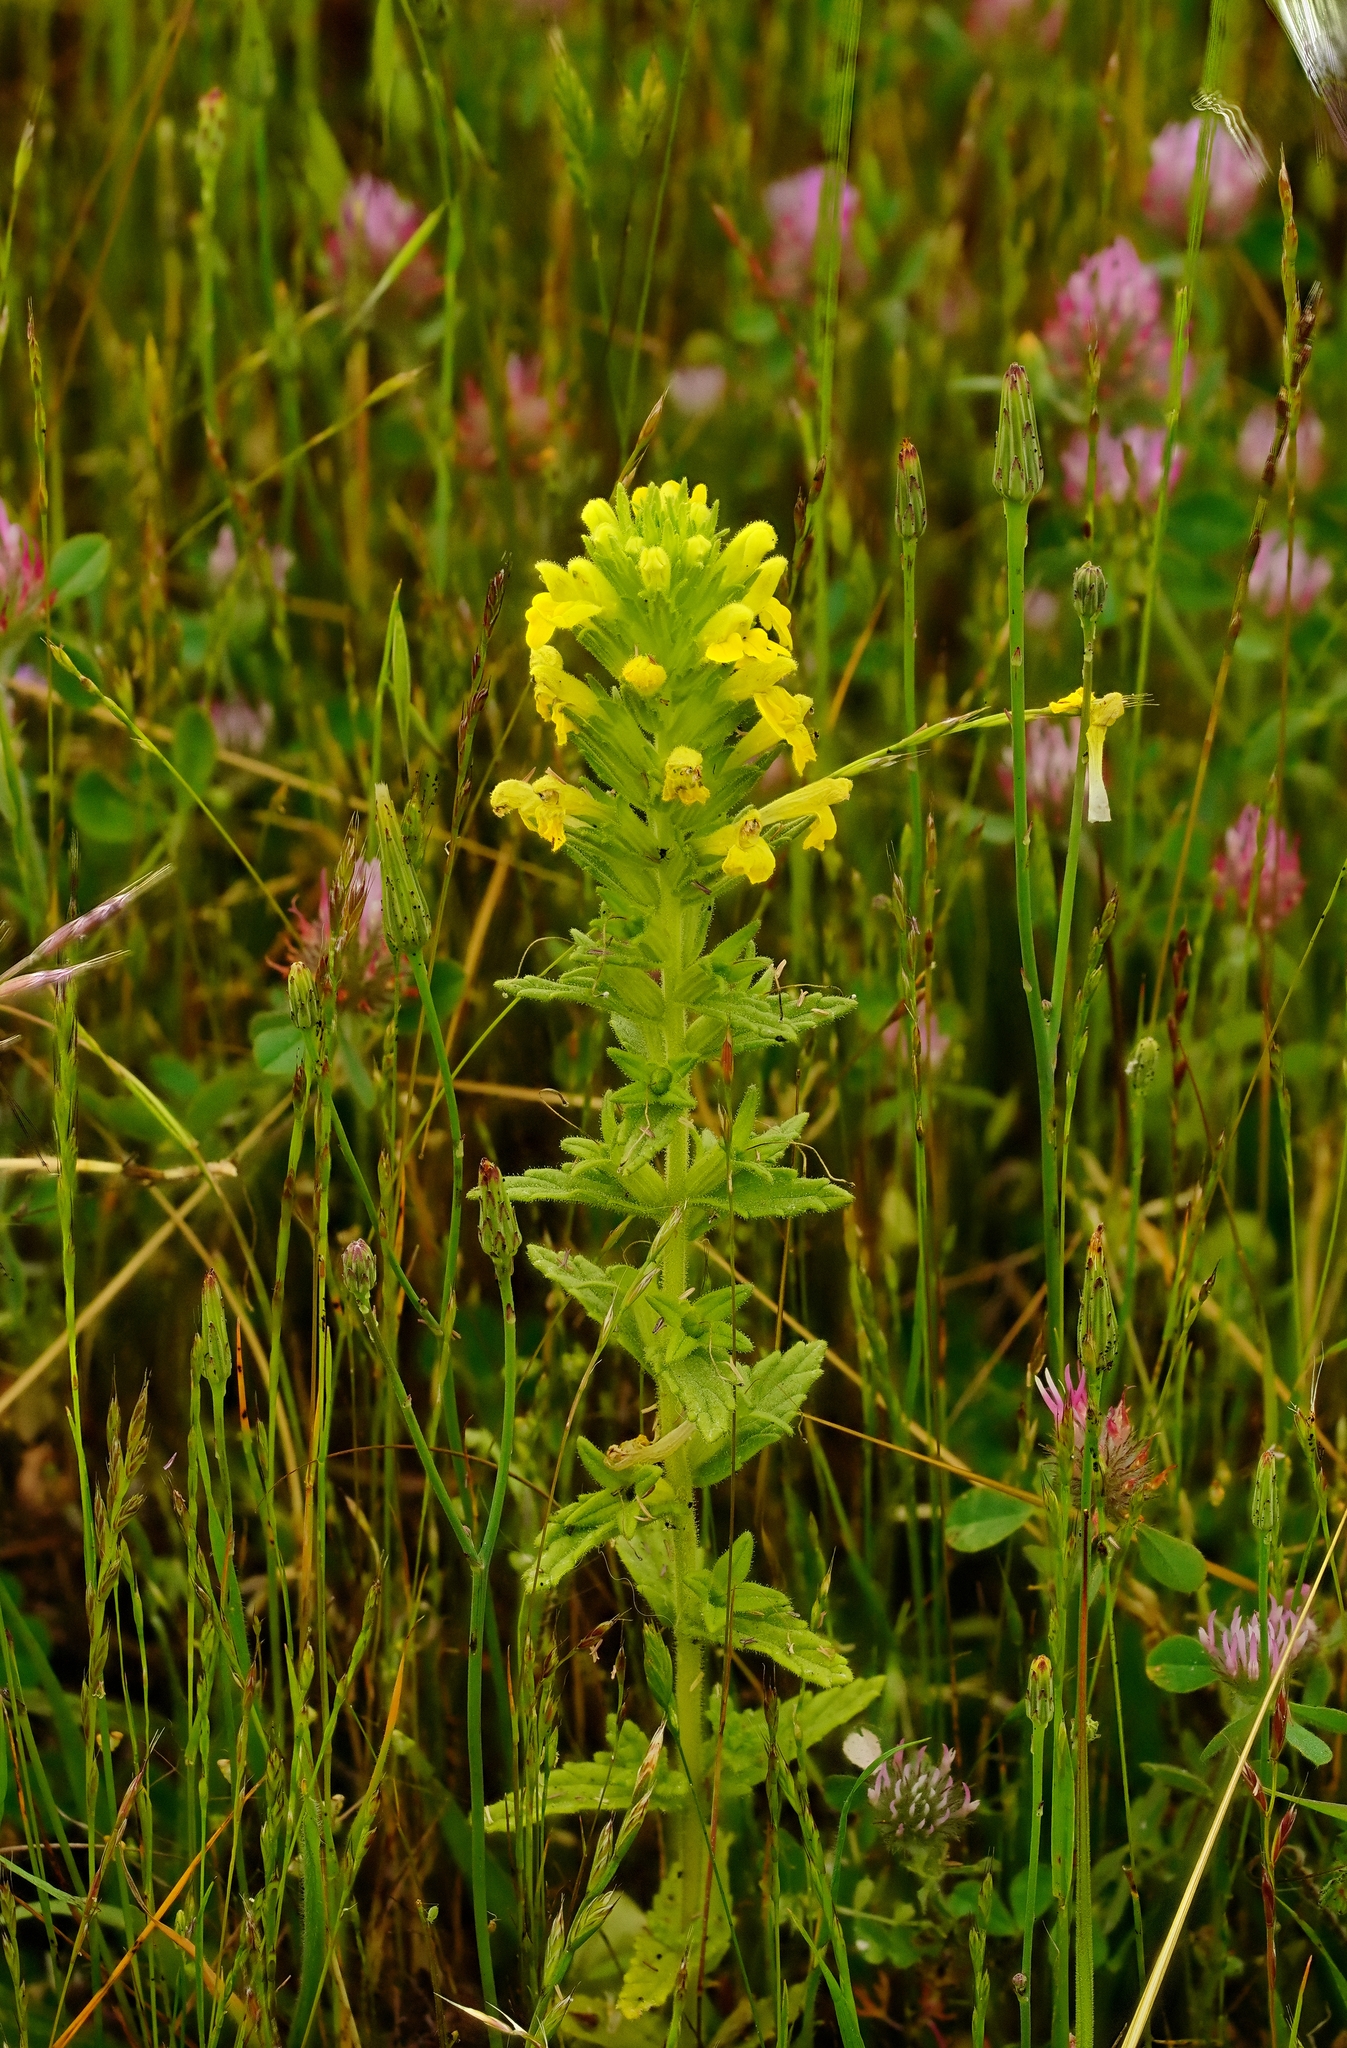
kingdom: Plantae
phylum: Tracheophyta
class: Magnoliopsida
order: Lamiales
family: Orobanchaceae
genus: Bellardia
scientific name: Bellardia viscosa
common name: Sticky parentucellia
